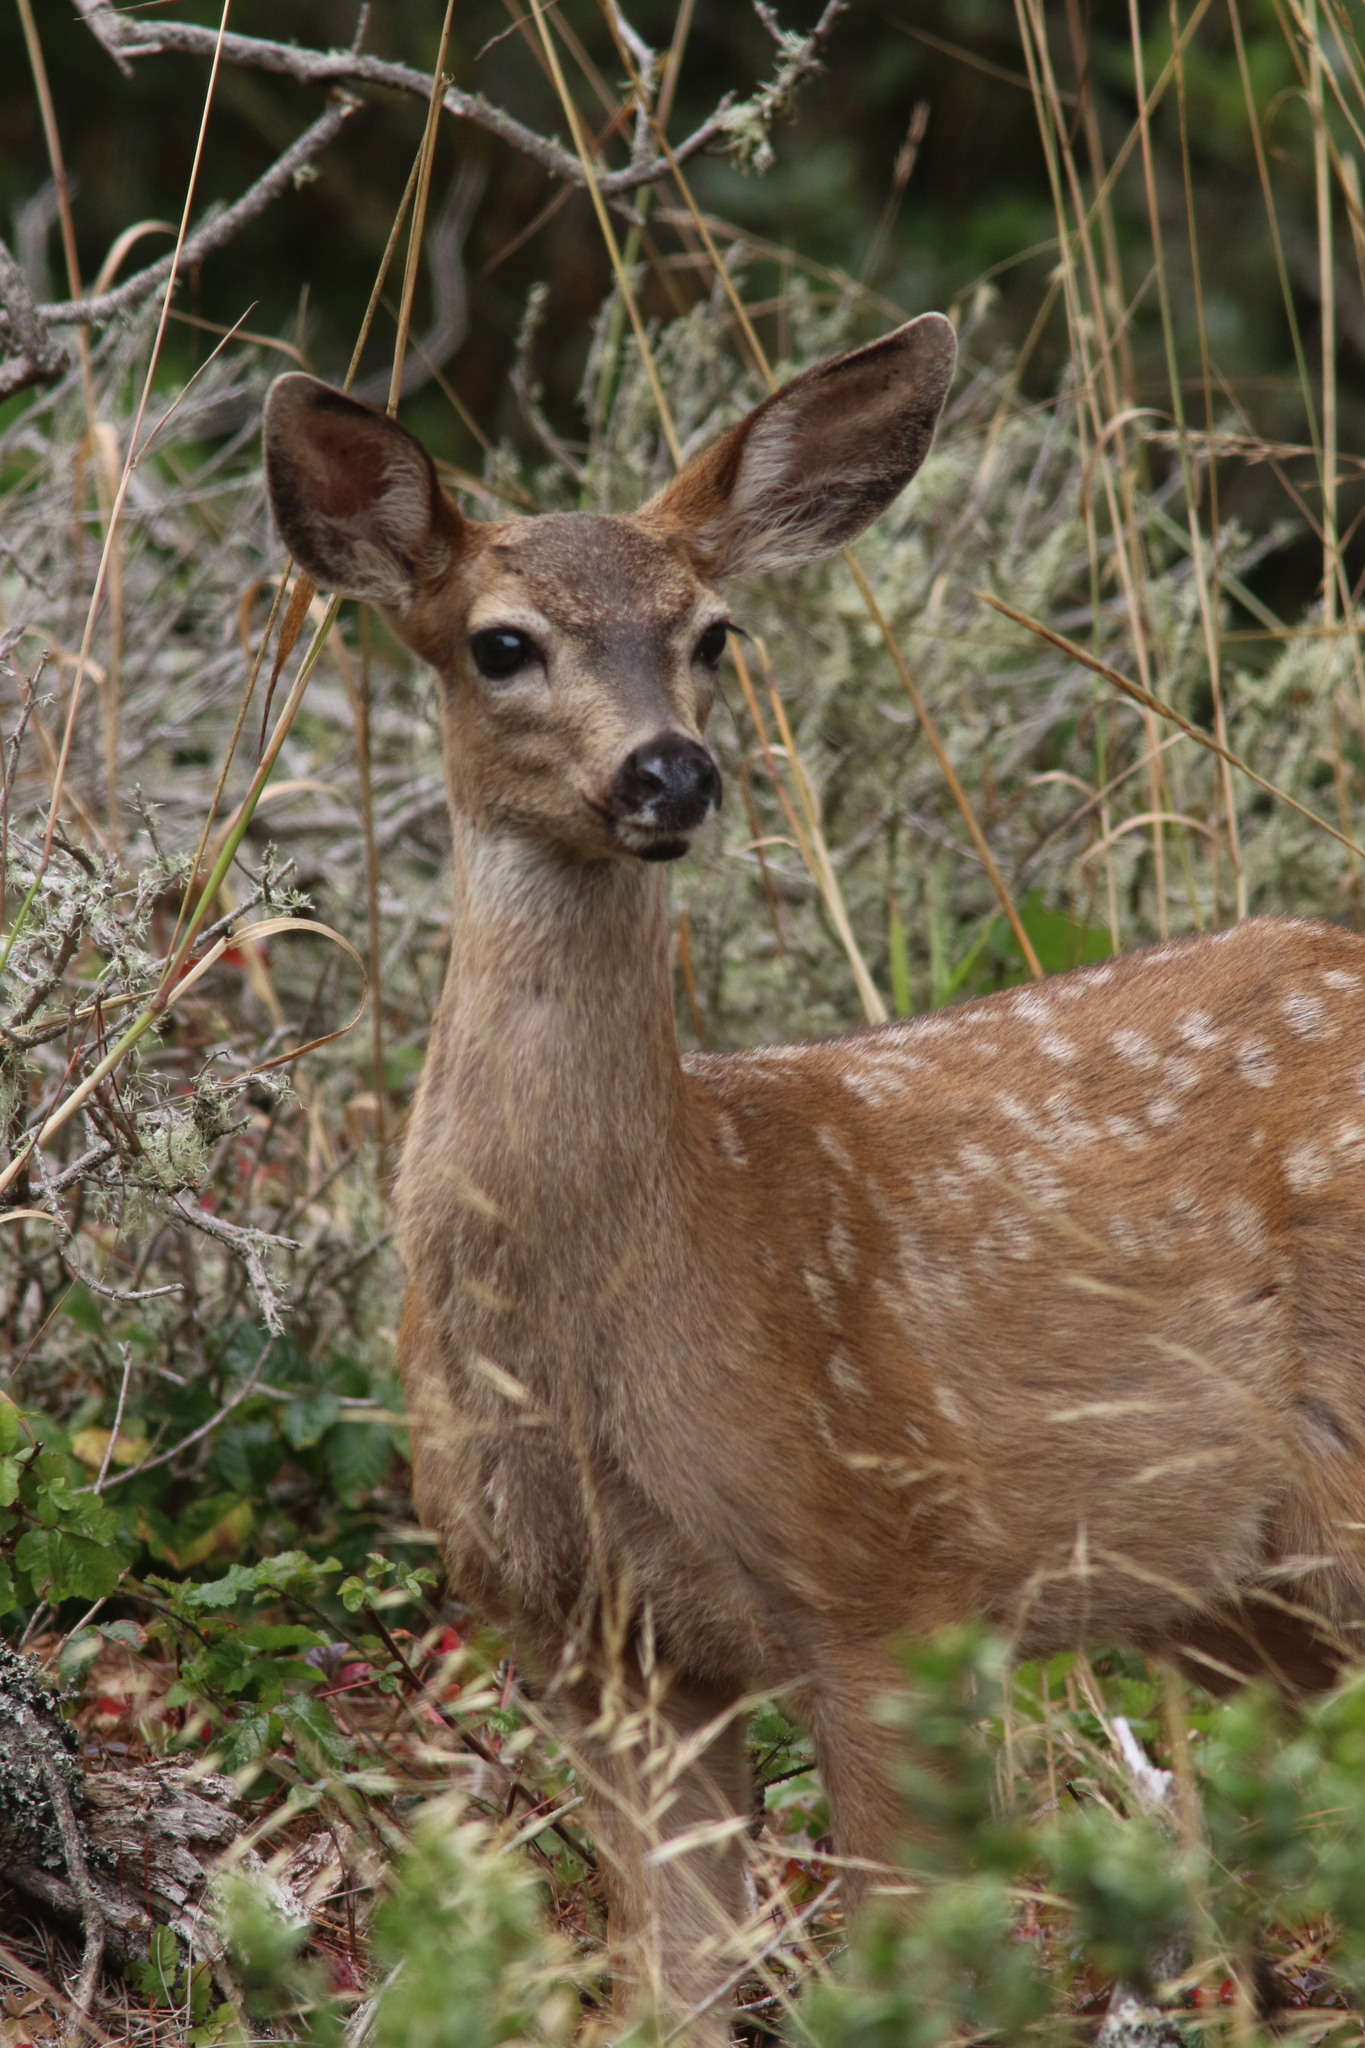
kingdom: Animalia
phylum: Chordata
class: Mammalia
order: Artiodactyla
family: Cervidae
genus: Odocoileus
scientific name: Odocoileus hemionus
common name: Mule deer
